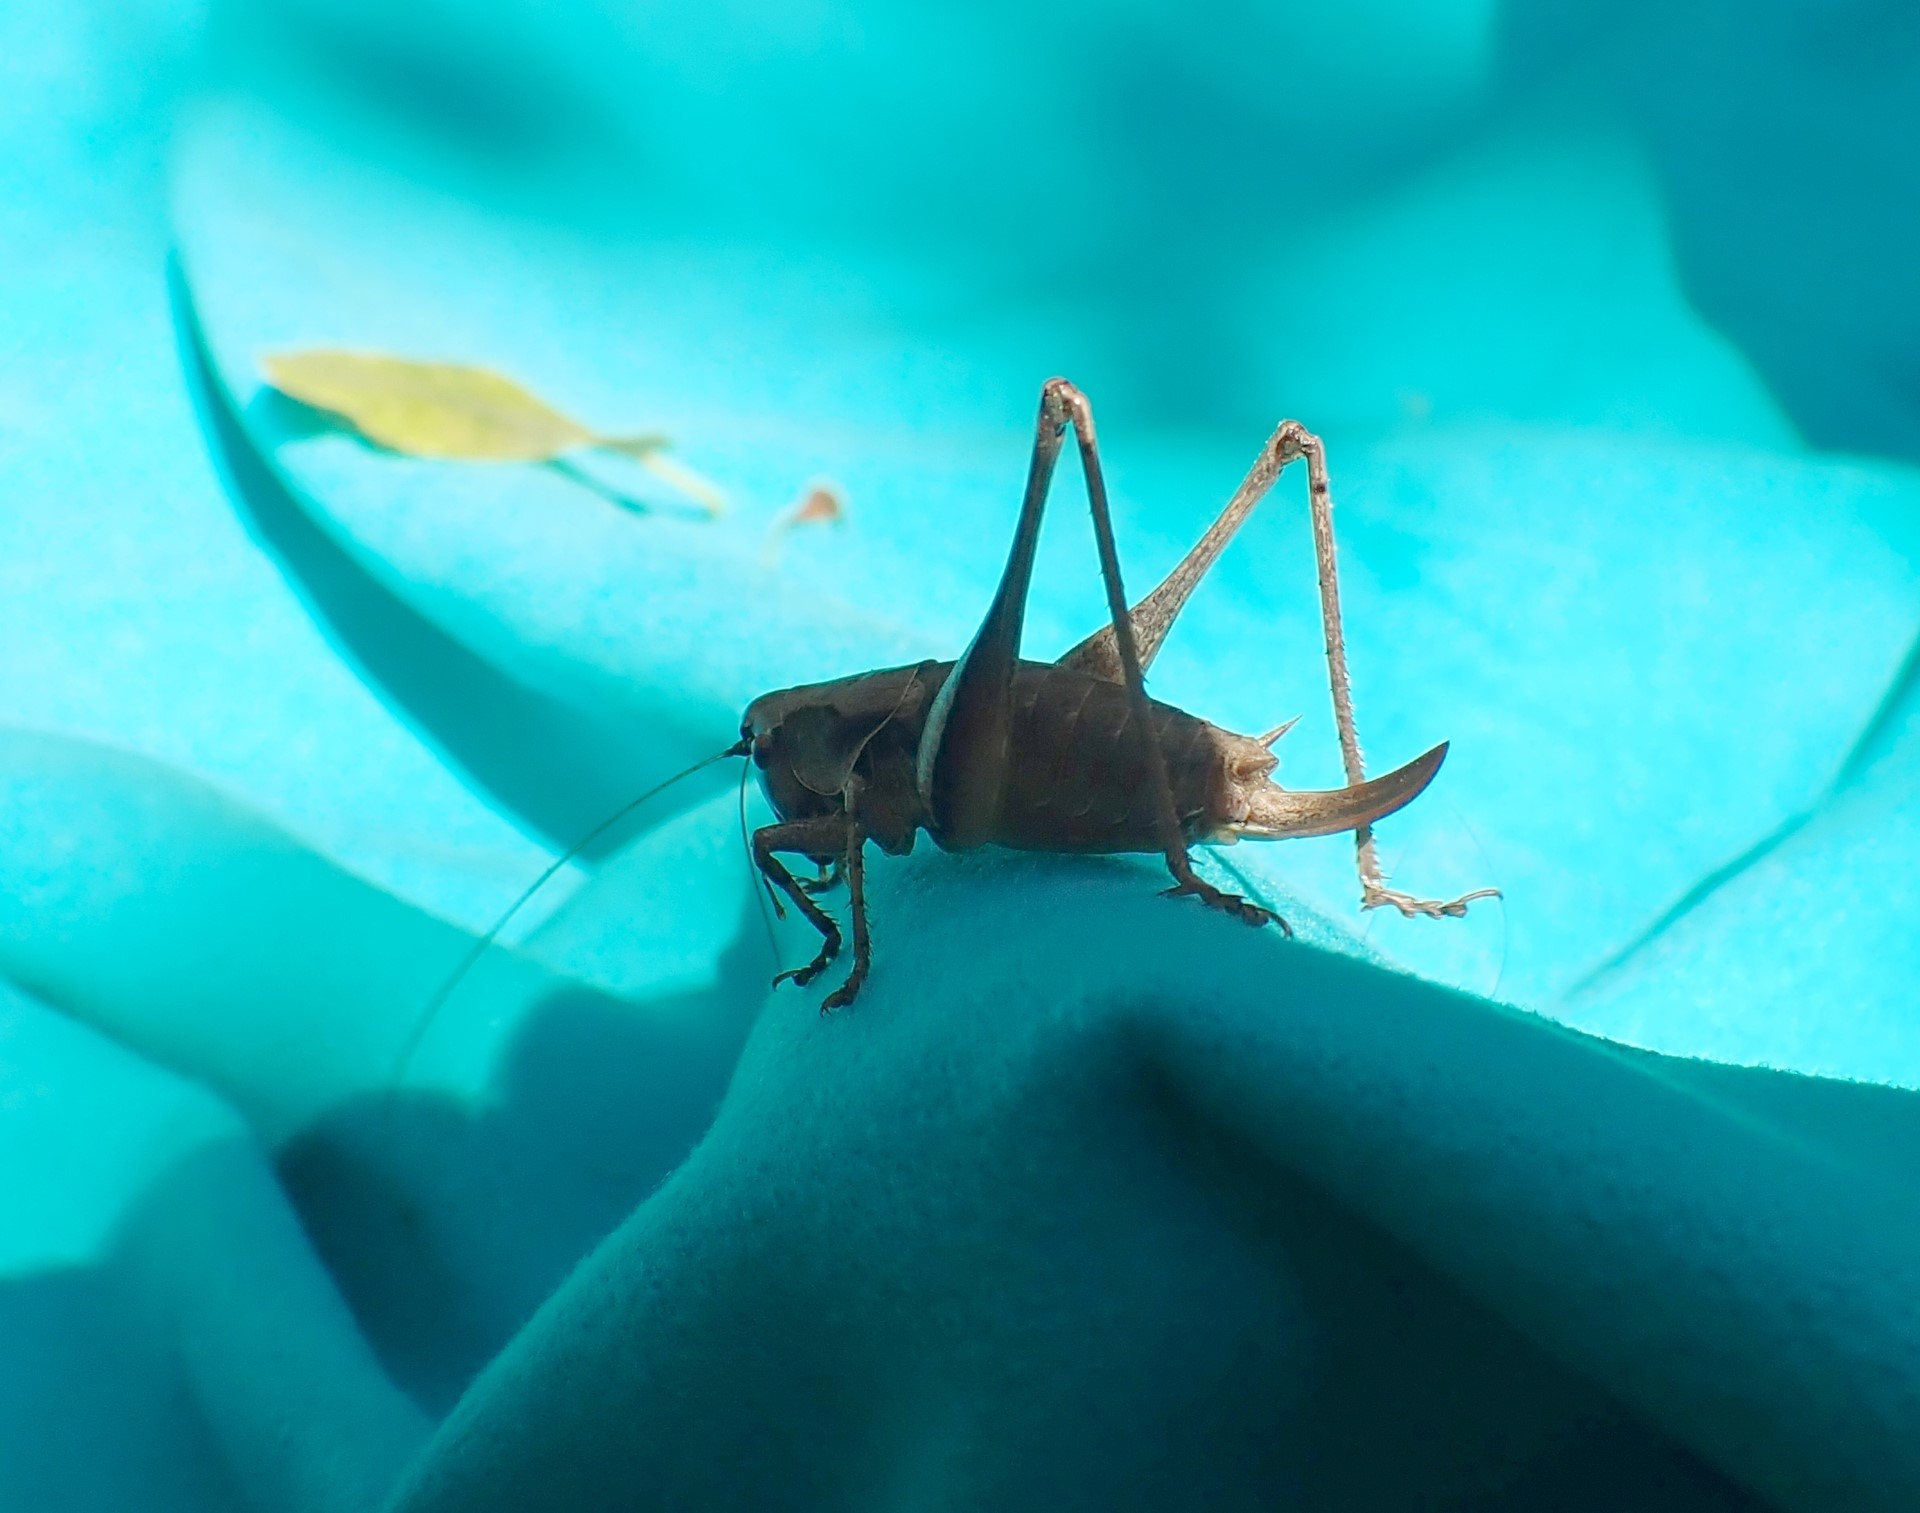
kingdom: Animalia
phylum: Arthropoda
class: Insecta
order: Orthoptera
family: Tettigoniidae
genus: Pholidoptera
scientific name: Pholidoptera griseoaptera
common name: Dark bush-cricket
